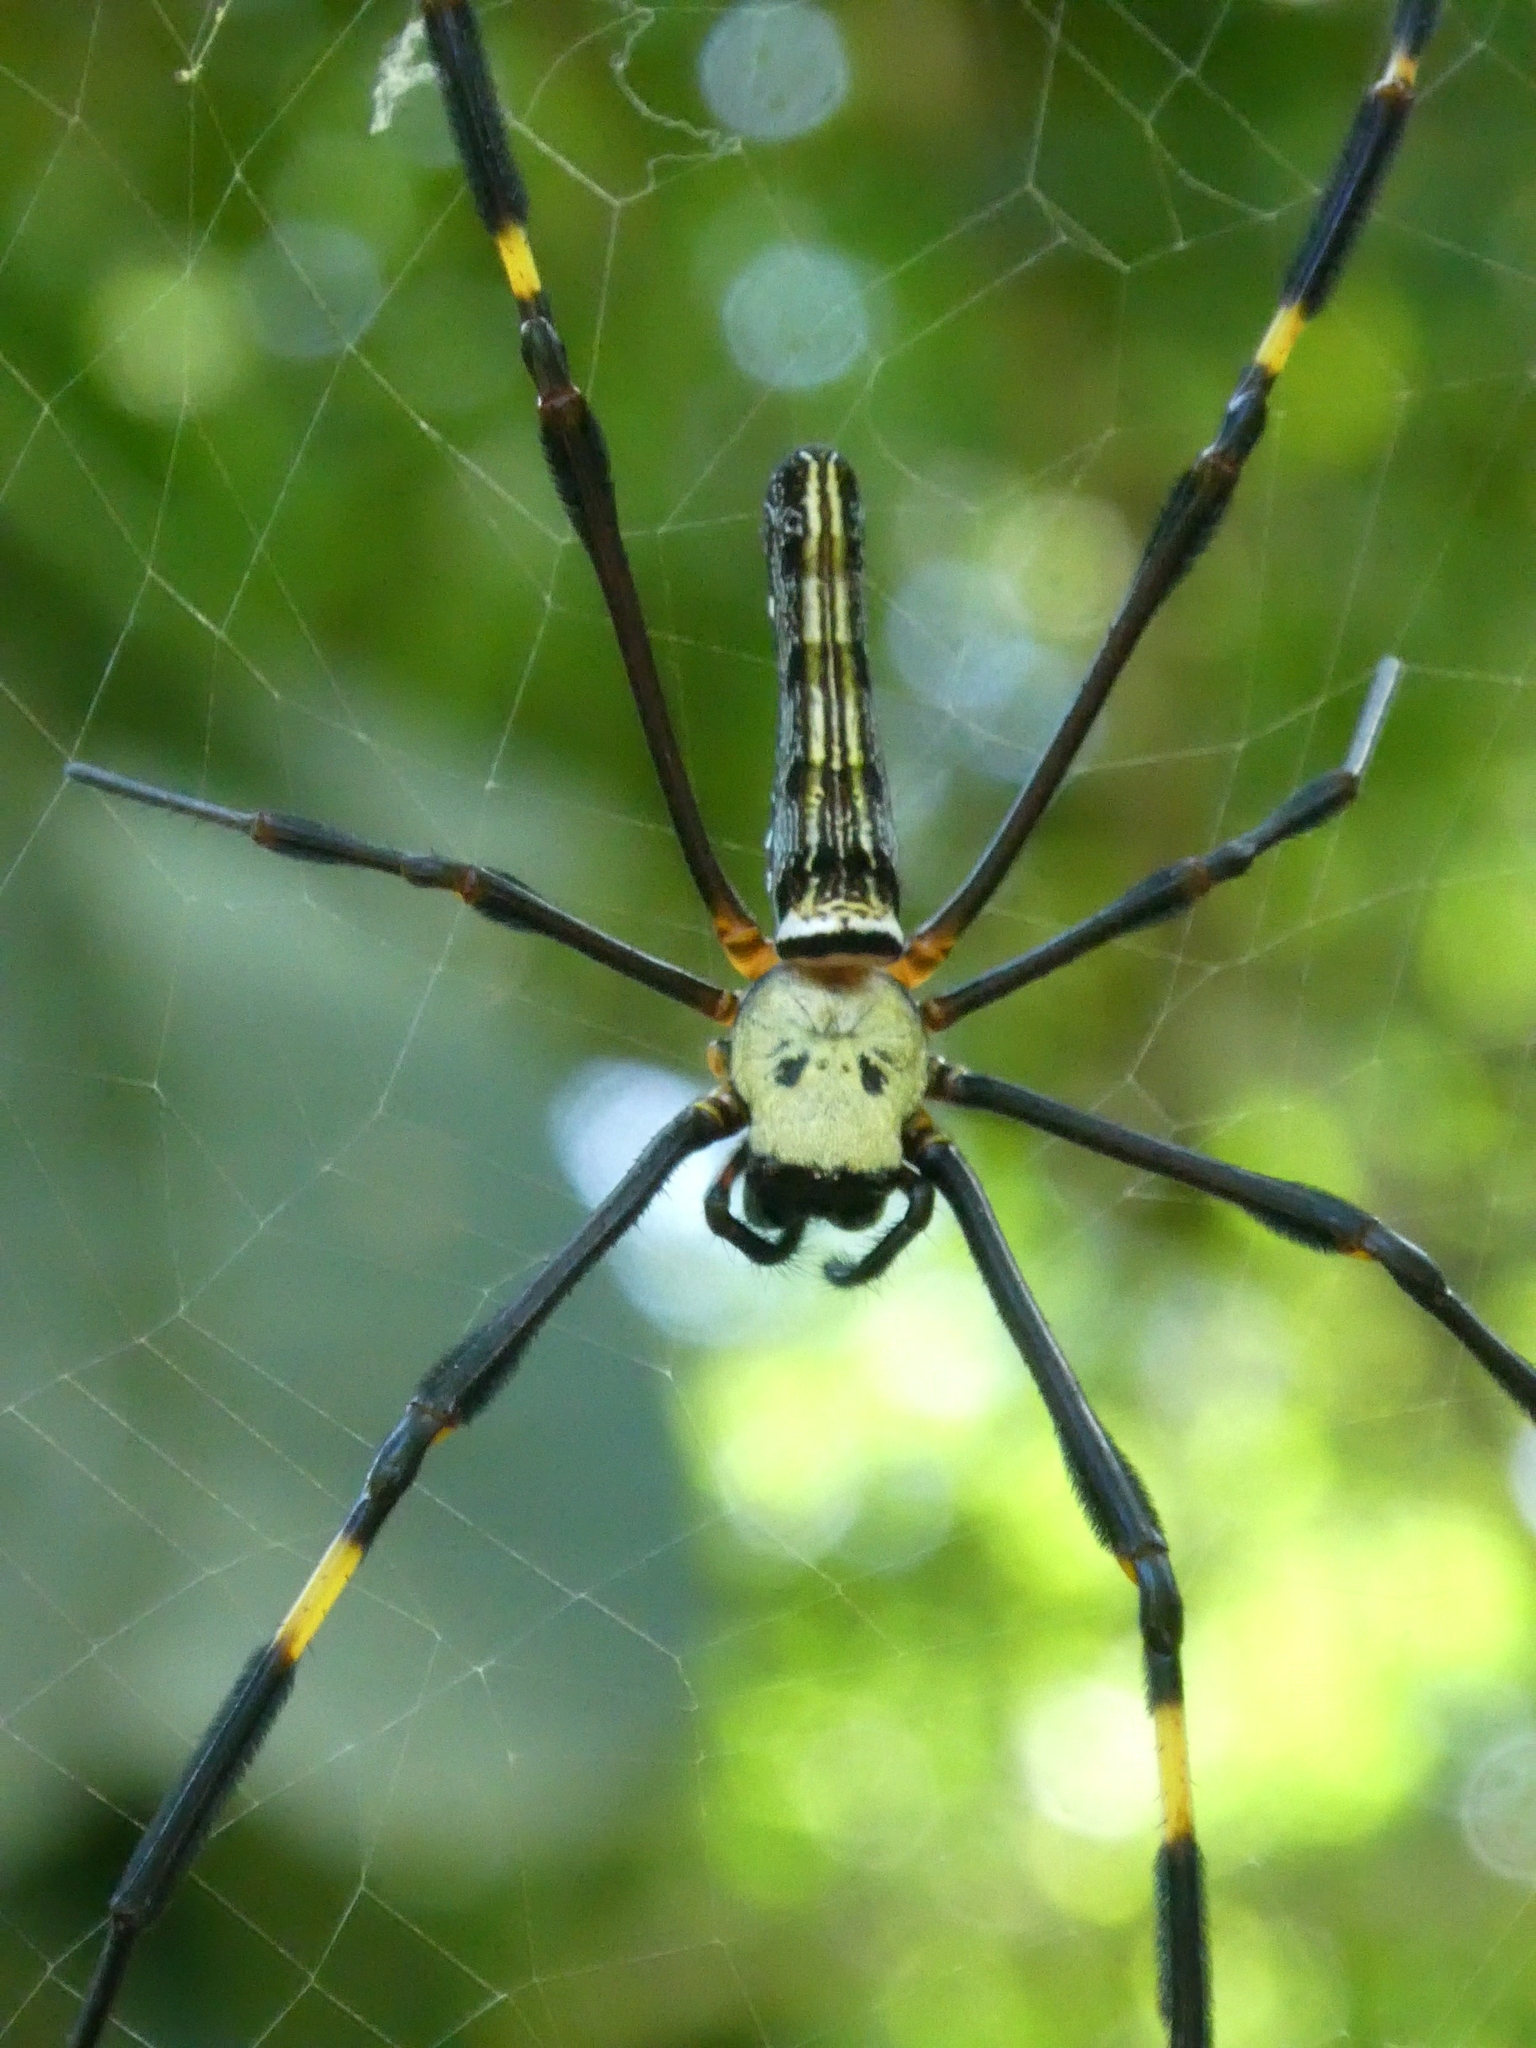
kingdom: Animalia
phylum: Arthropoda
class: Arachnida
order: Araneae
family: Araneidae
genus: Nephila
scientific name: Nephila pilipes
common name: Giant golden orb weaver
